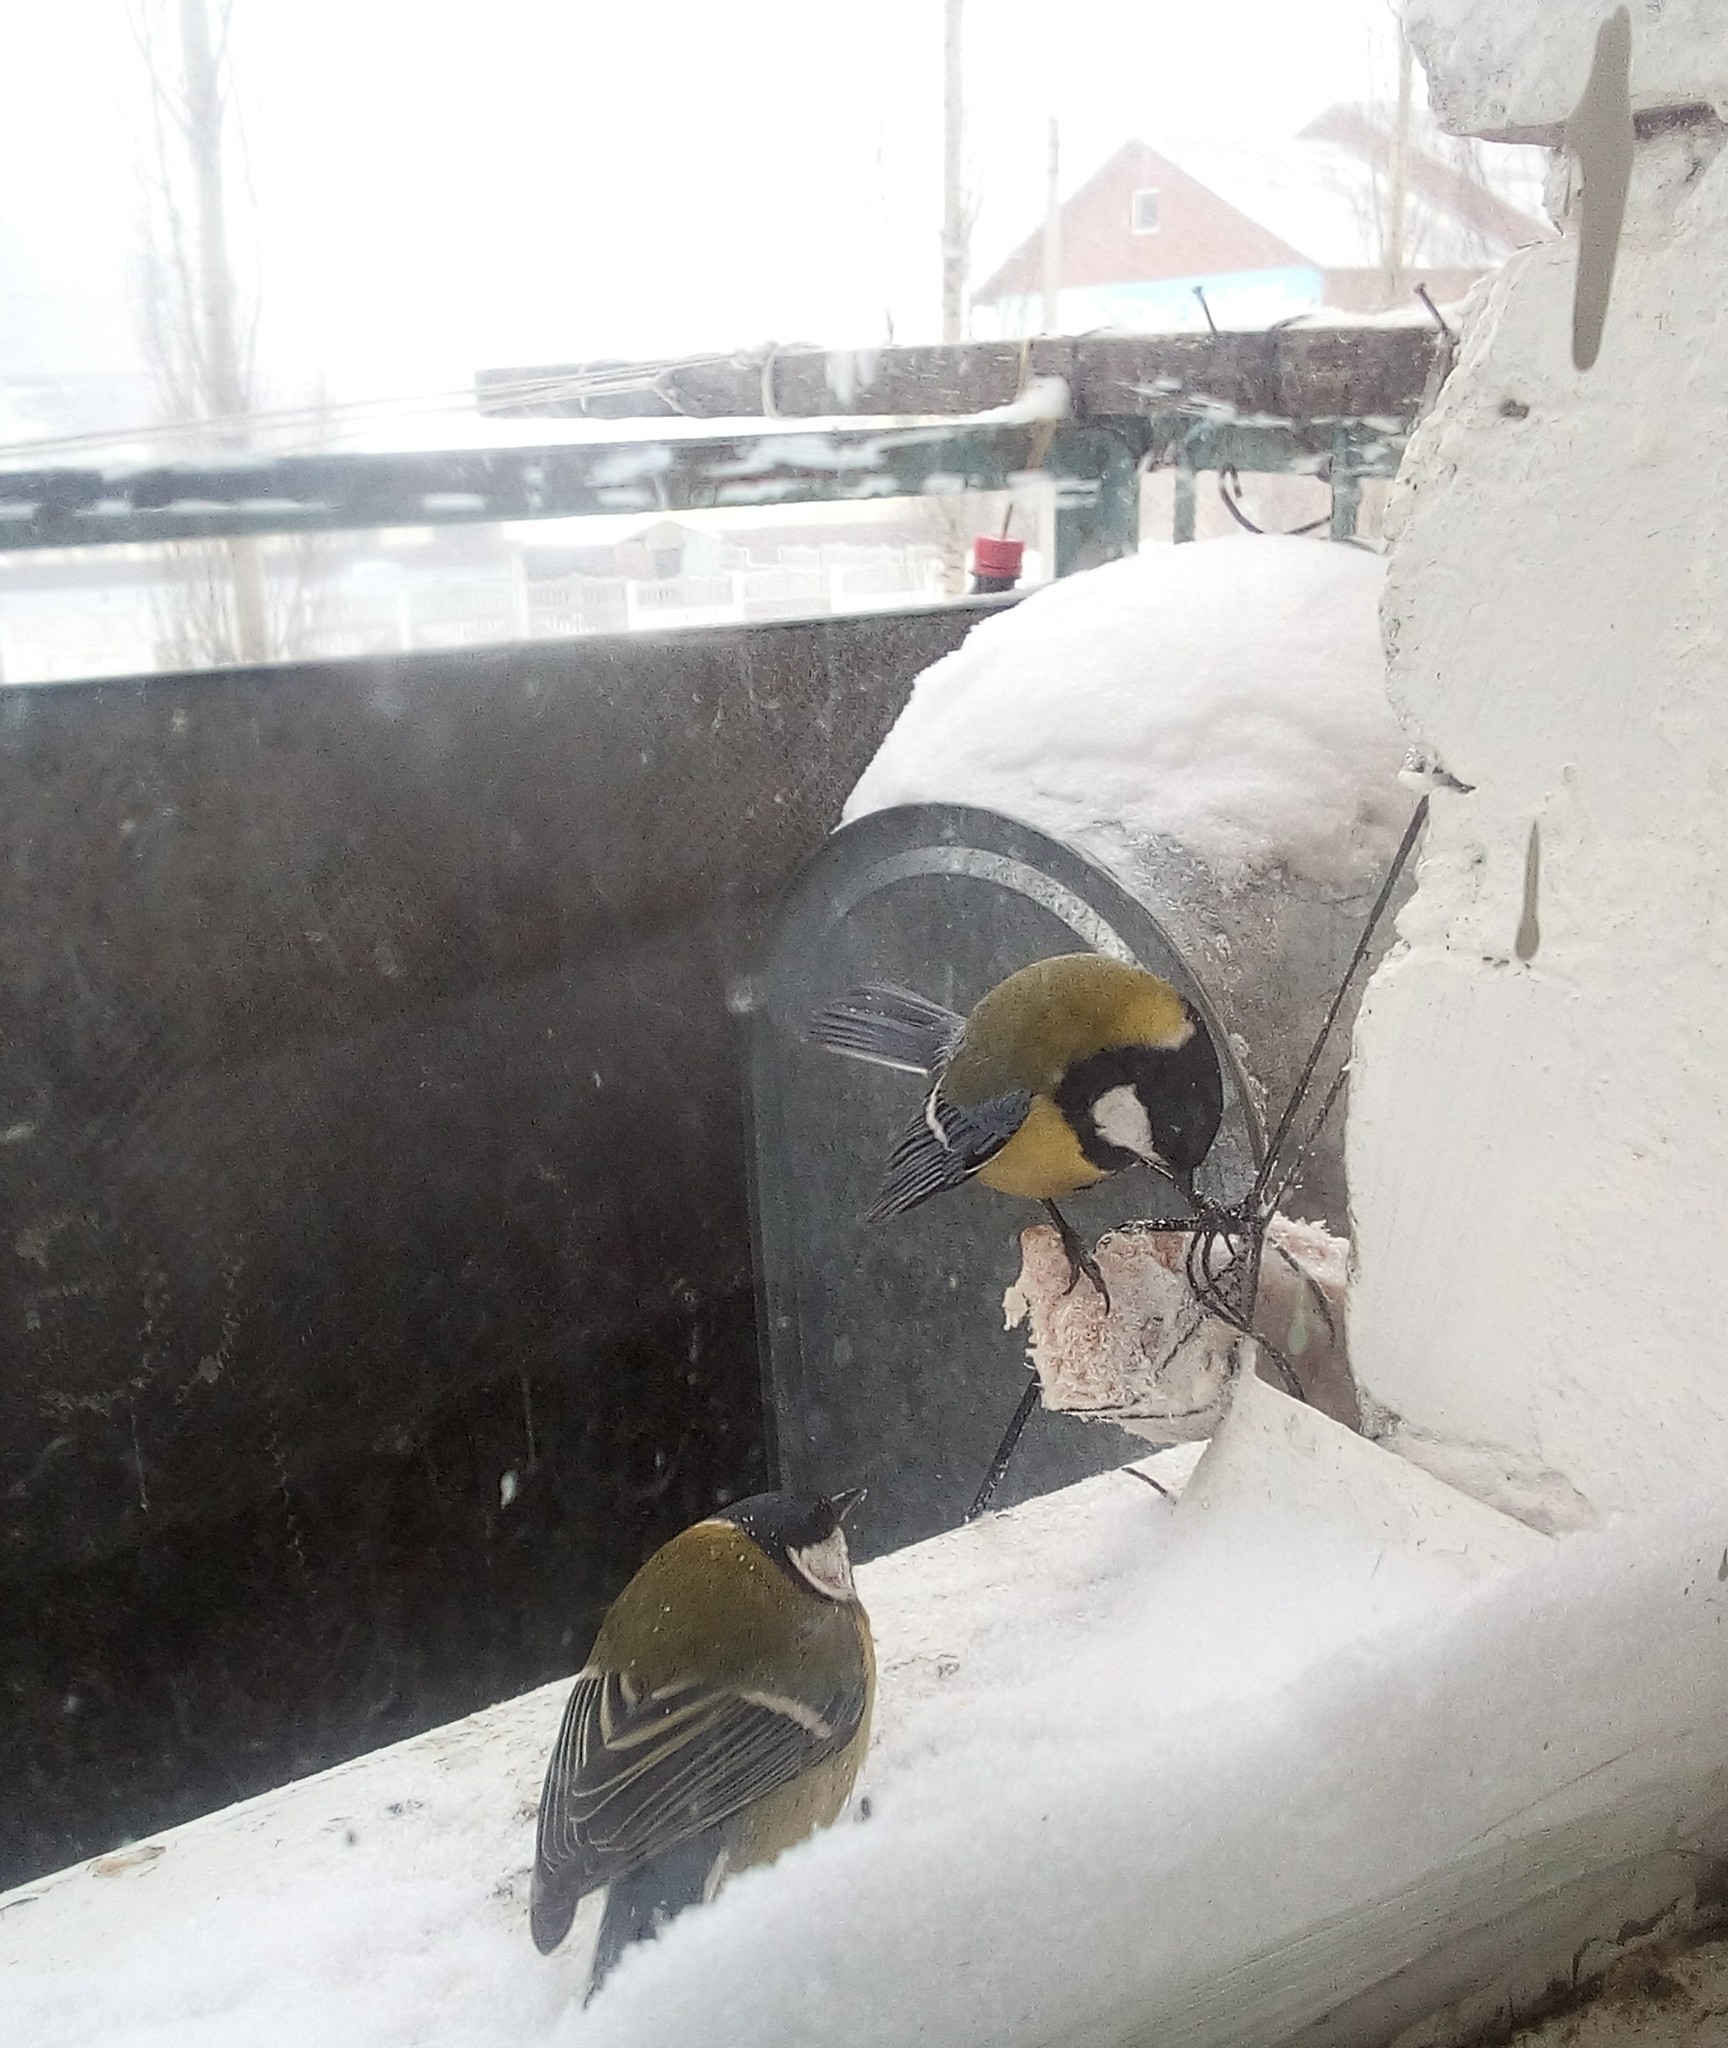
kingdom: Animalia
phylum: Chordata
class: Aves
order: Passeriformes
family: Paridae
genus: Parus
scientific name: Parus major
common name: Great tit
